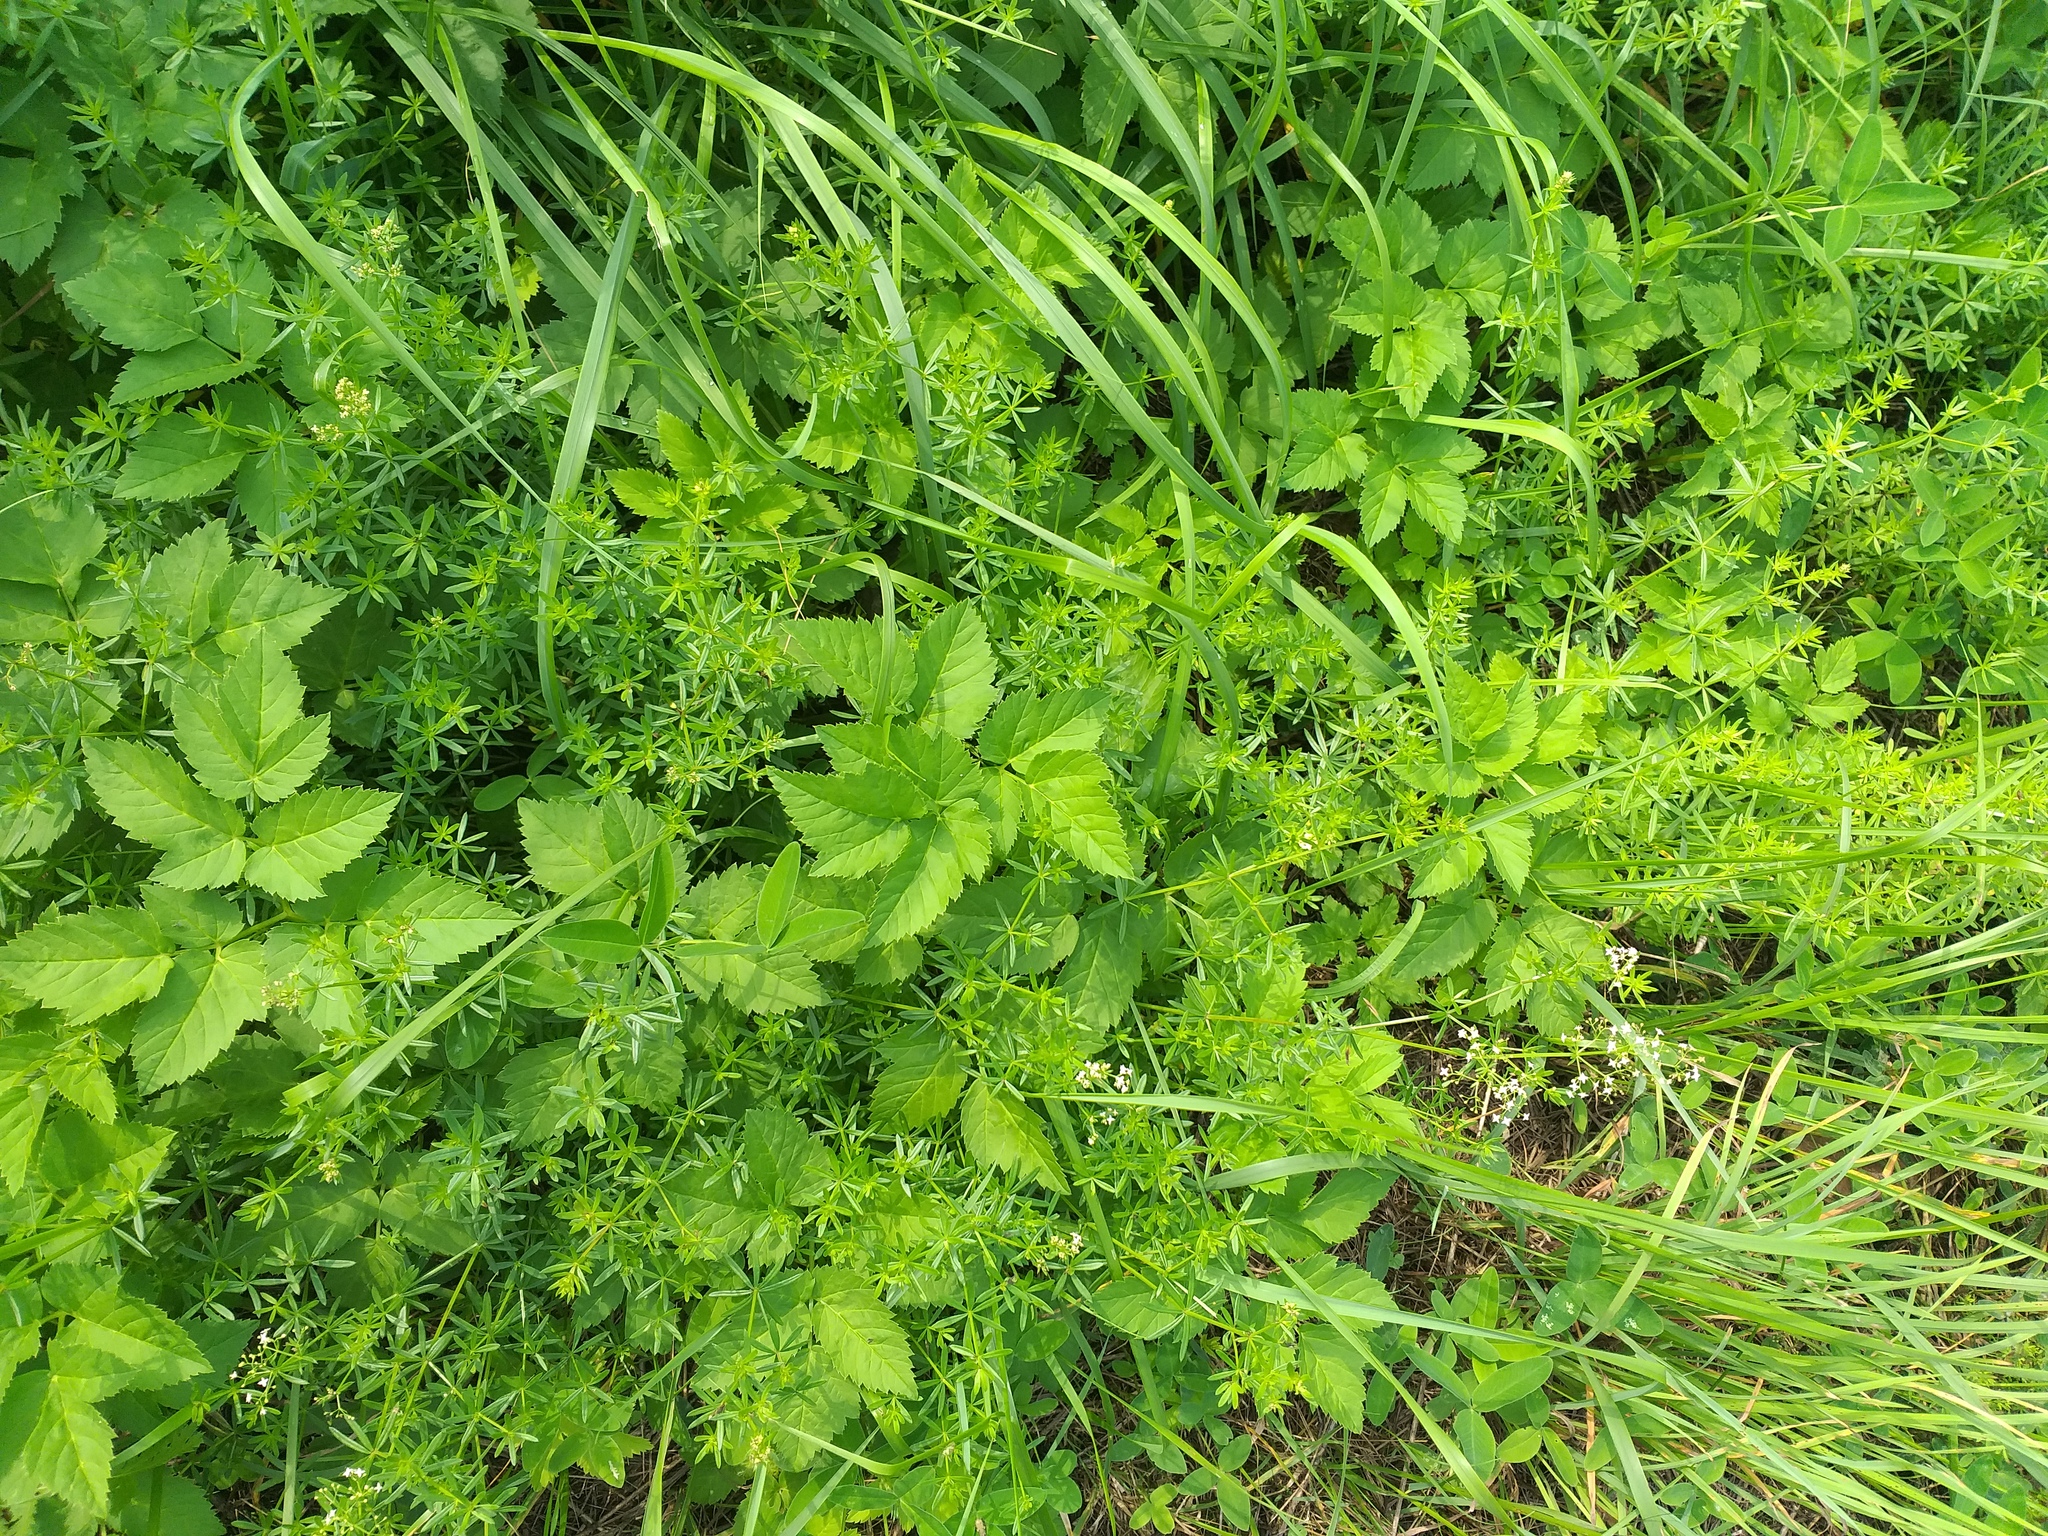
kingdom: Plantae
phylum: Tracheophyta
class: Magnoliopsida
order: Apiales
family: Apiaceae
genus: Aegopodium
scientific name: Aegopodium podagraria
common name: Ground-elder
